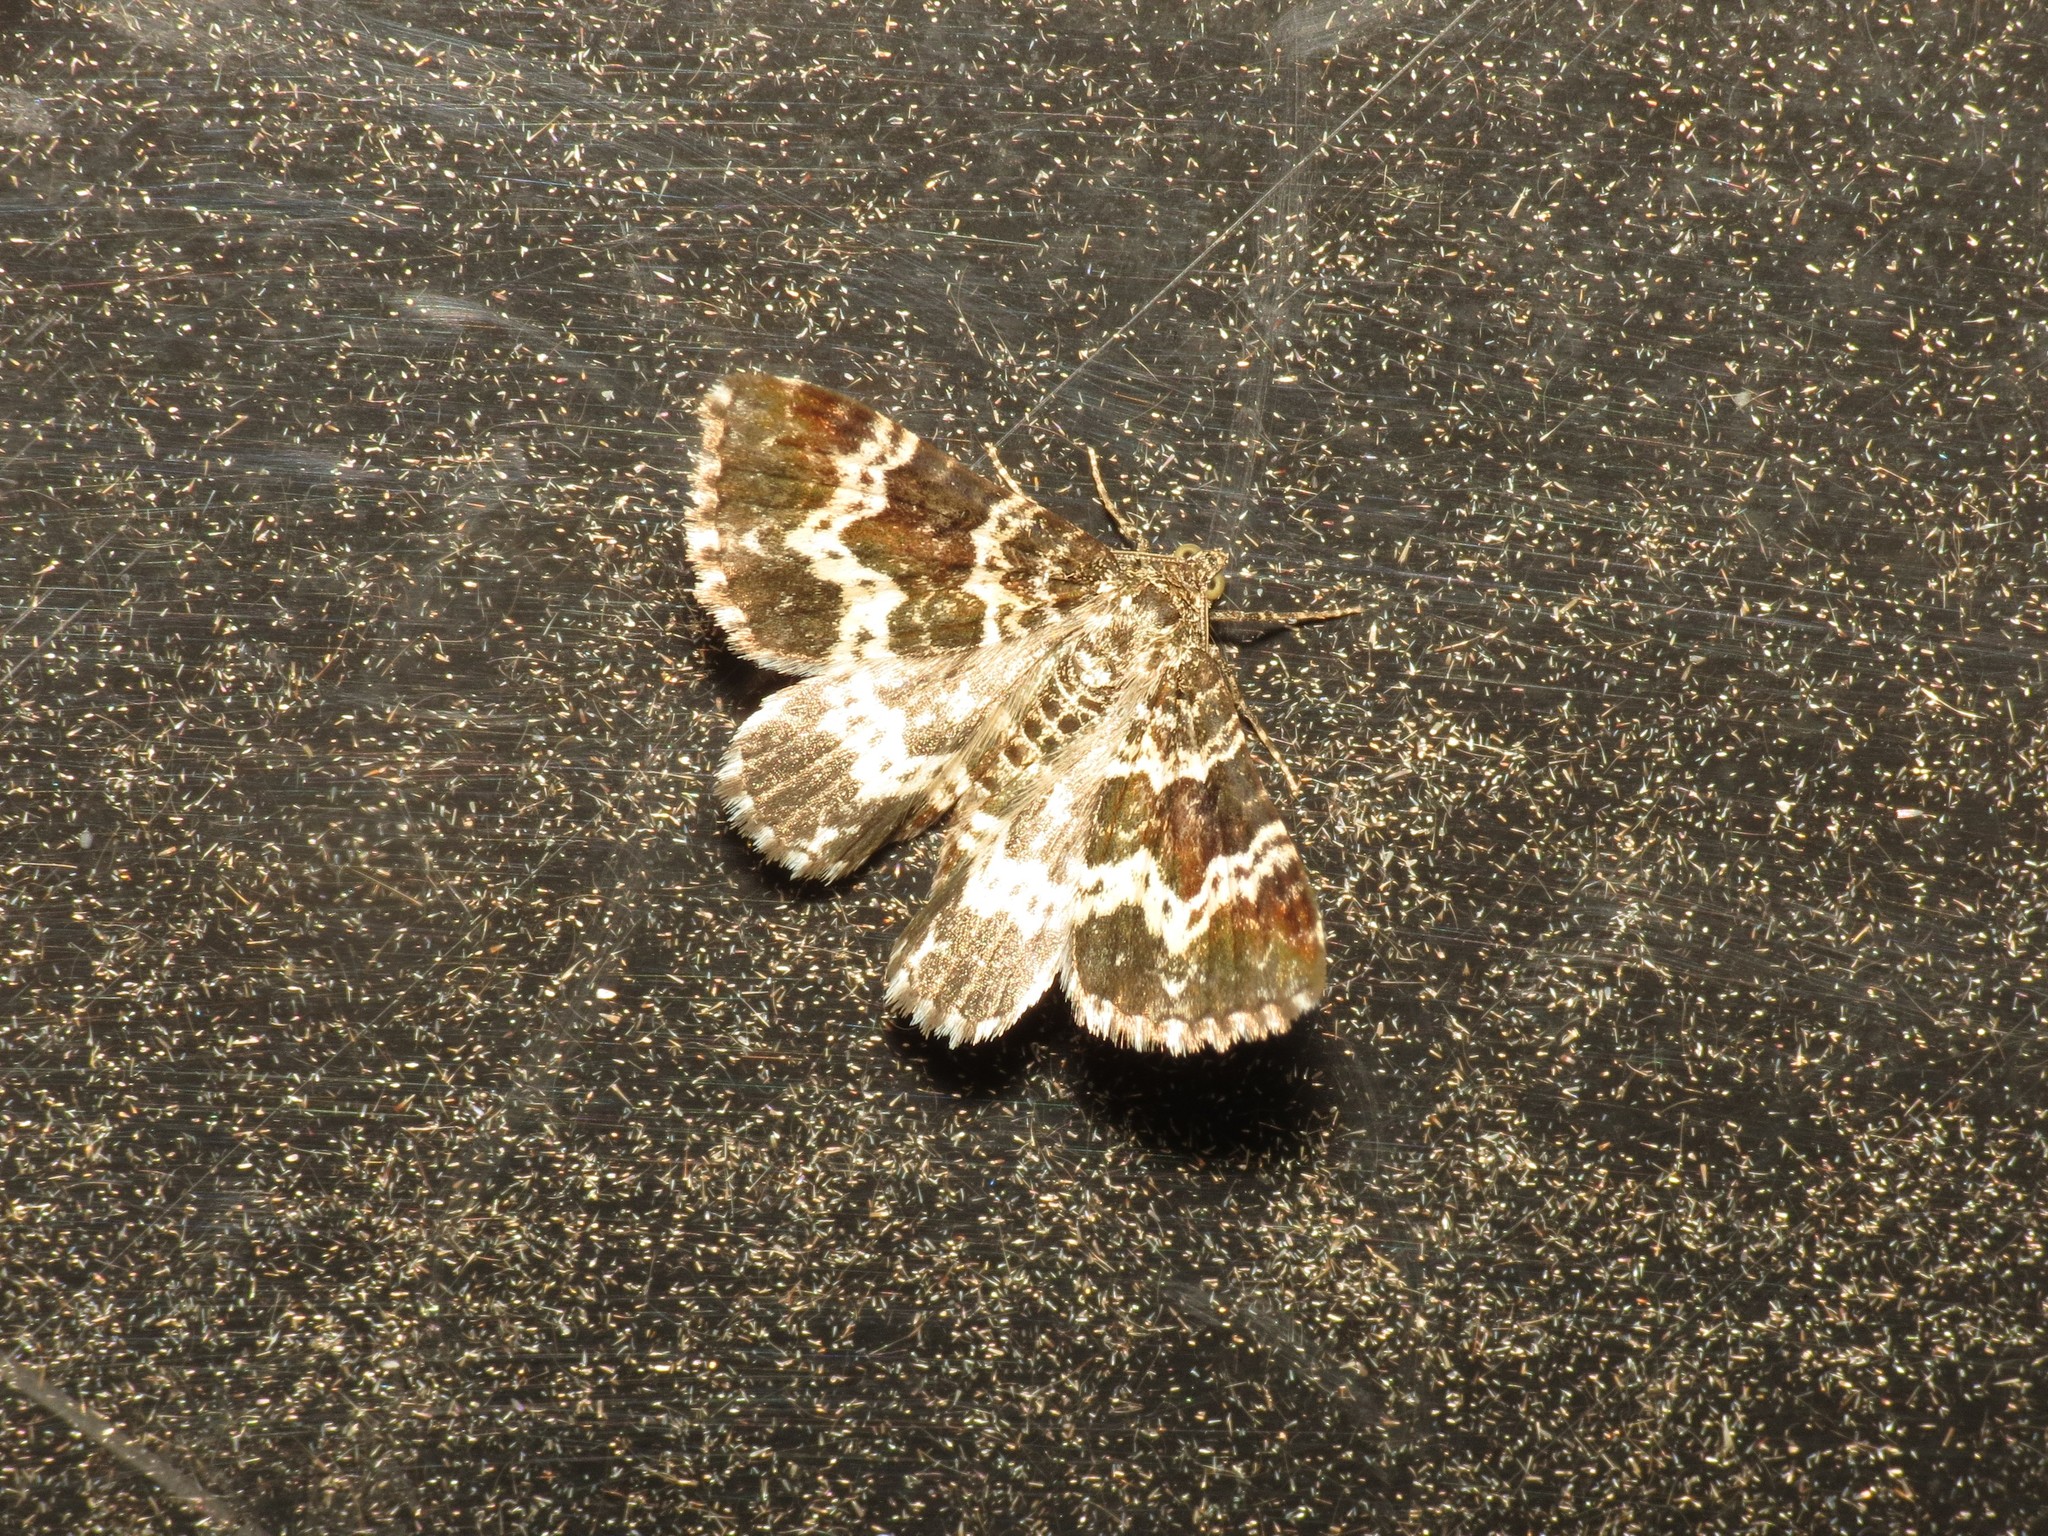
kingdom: Animalia
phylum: Arthropoda
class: Insecta
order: Lepidoptera
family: Geometridae
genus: Epirrhoe
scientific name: Epirrhoe tristata
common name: Small argent & sable
